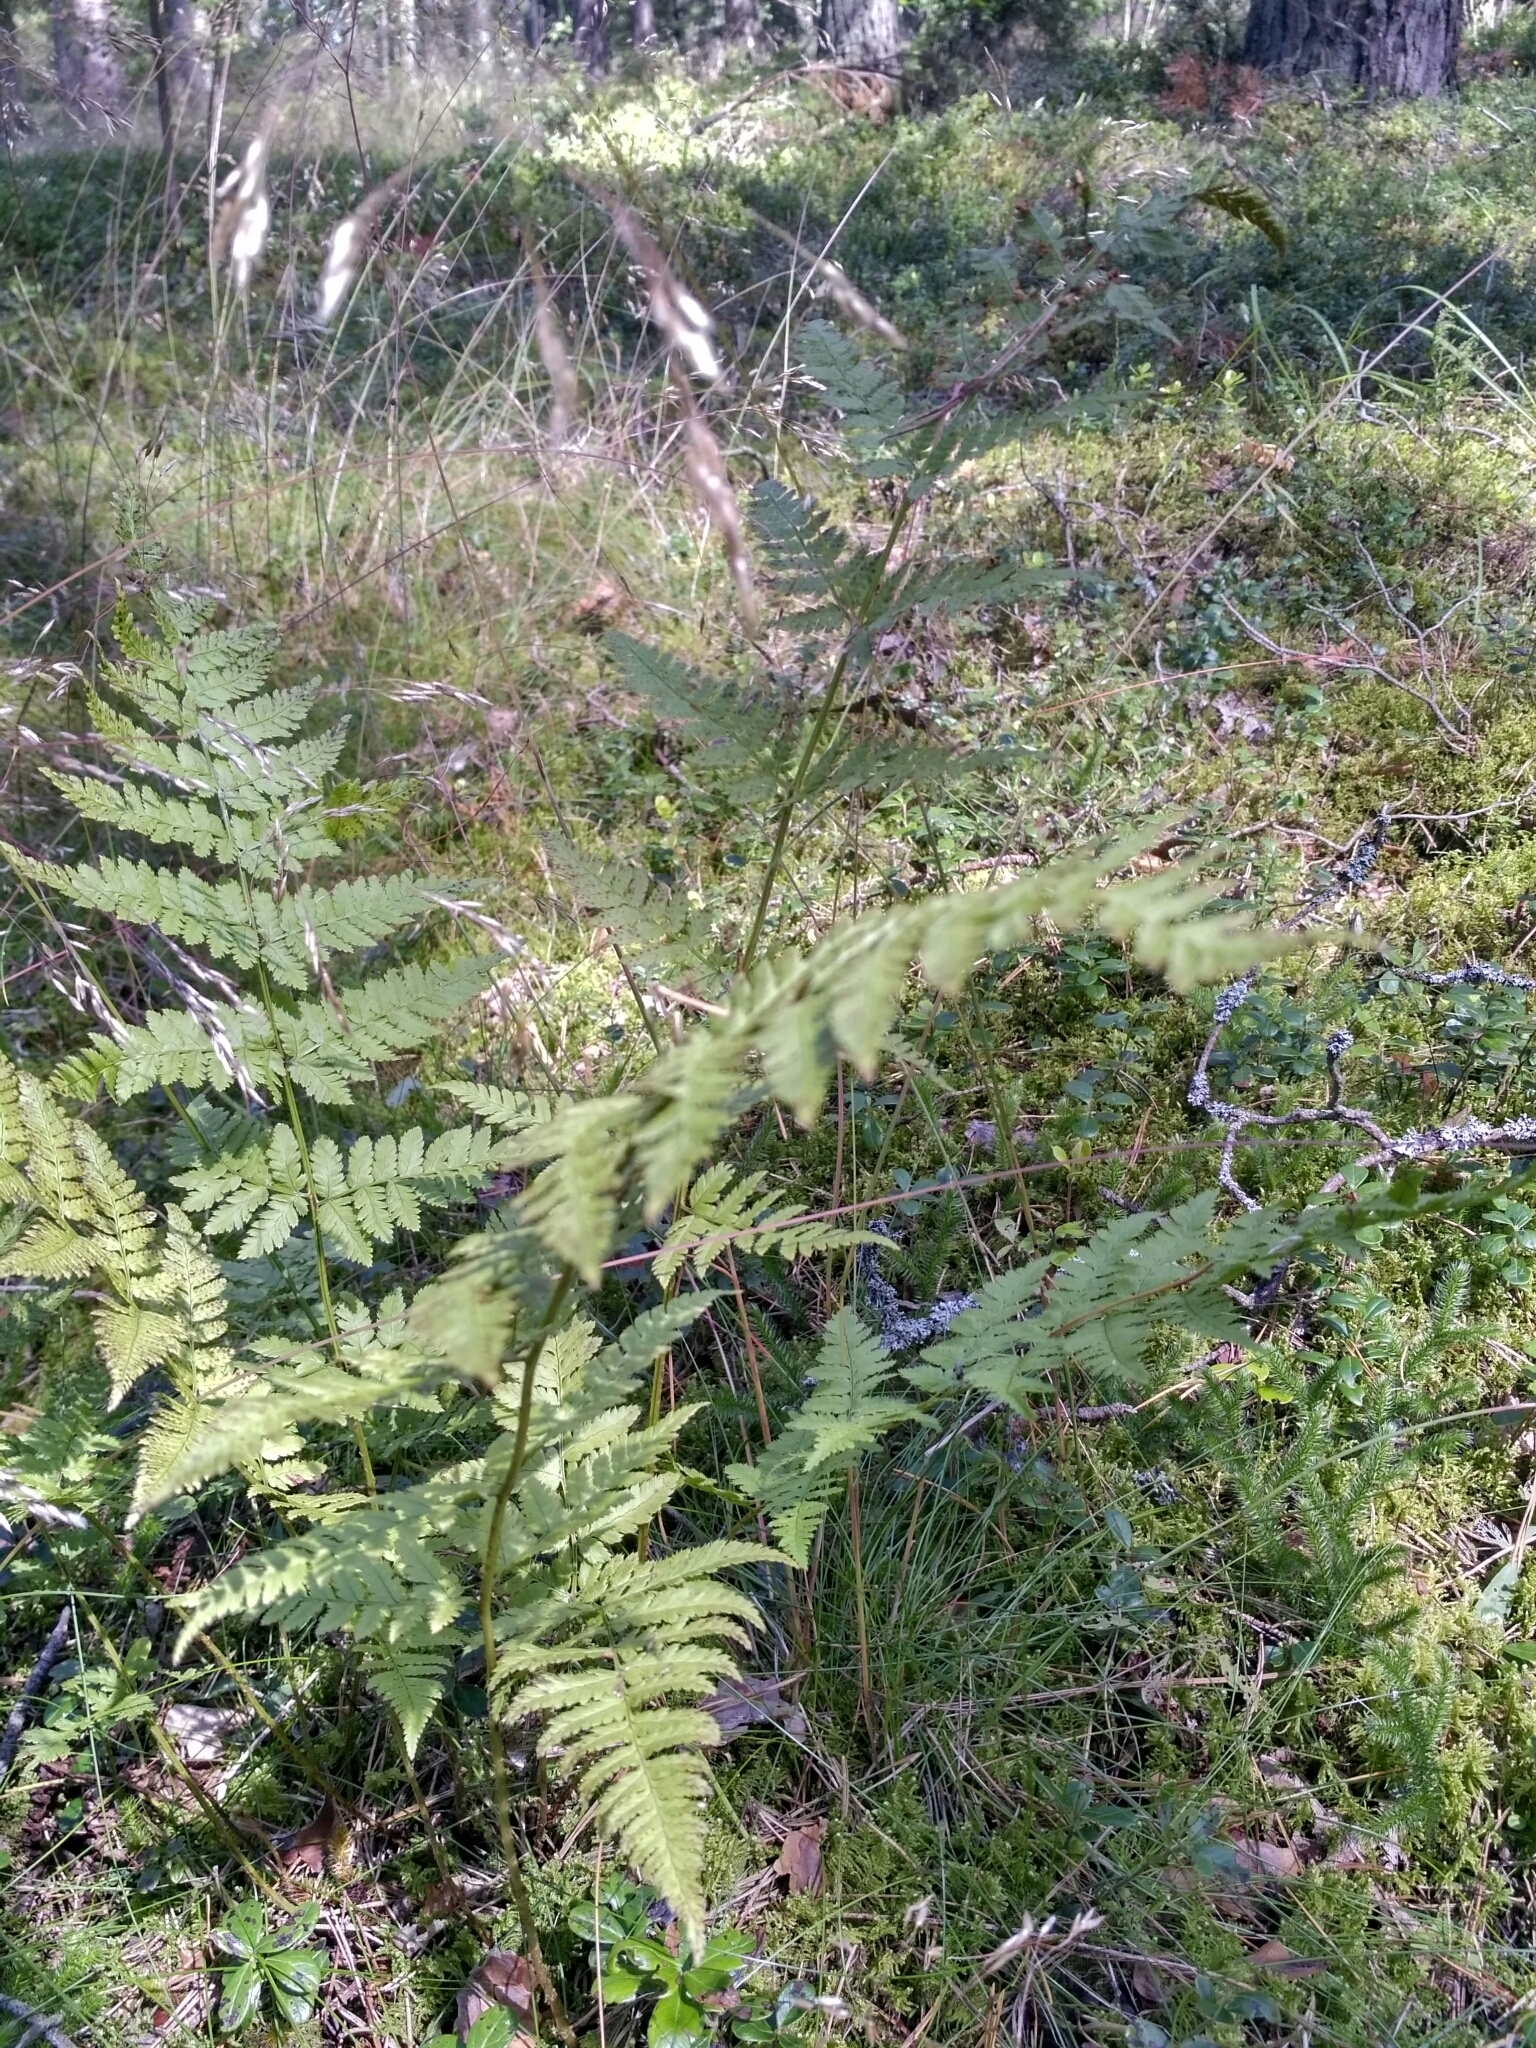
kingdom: Plantae
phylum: Tracheophyta
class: Polypodiopsida
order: Polypodiales
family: Dryopteridaceae
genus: Dryopteris
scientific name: Dryopteris carthusiana
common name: Narrow buckler-fern
